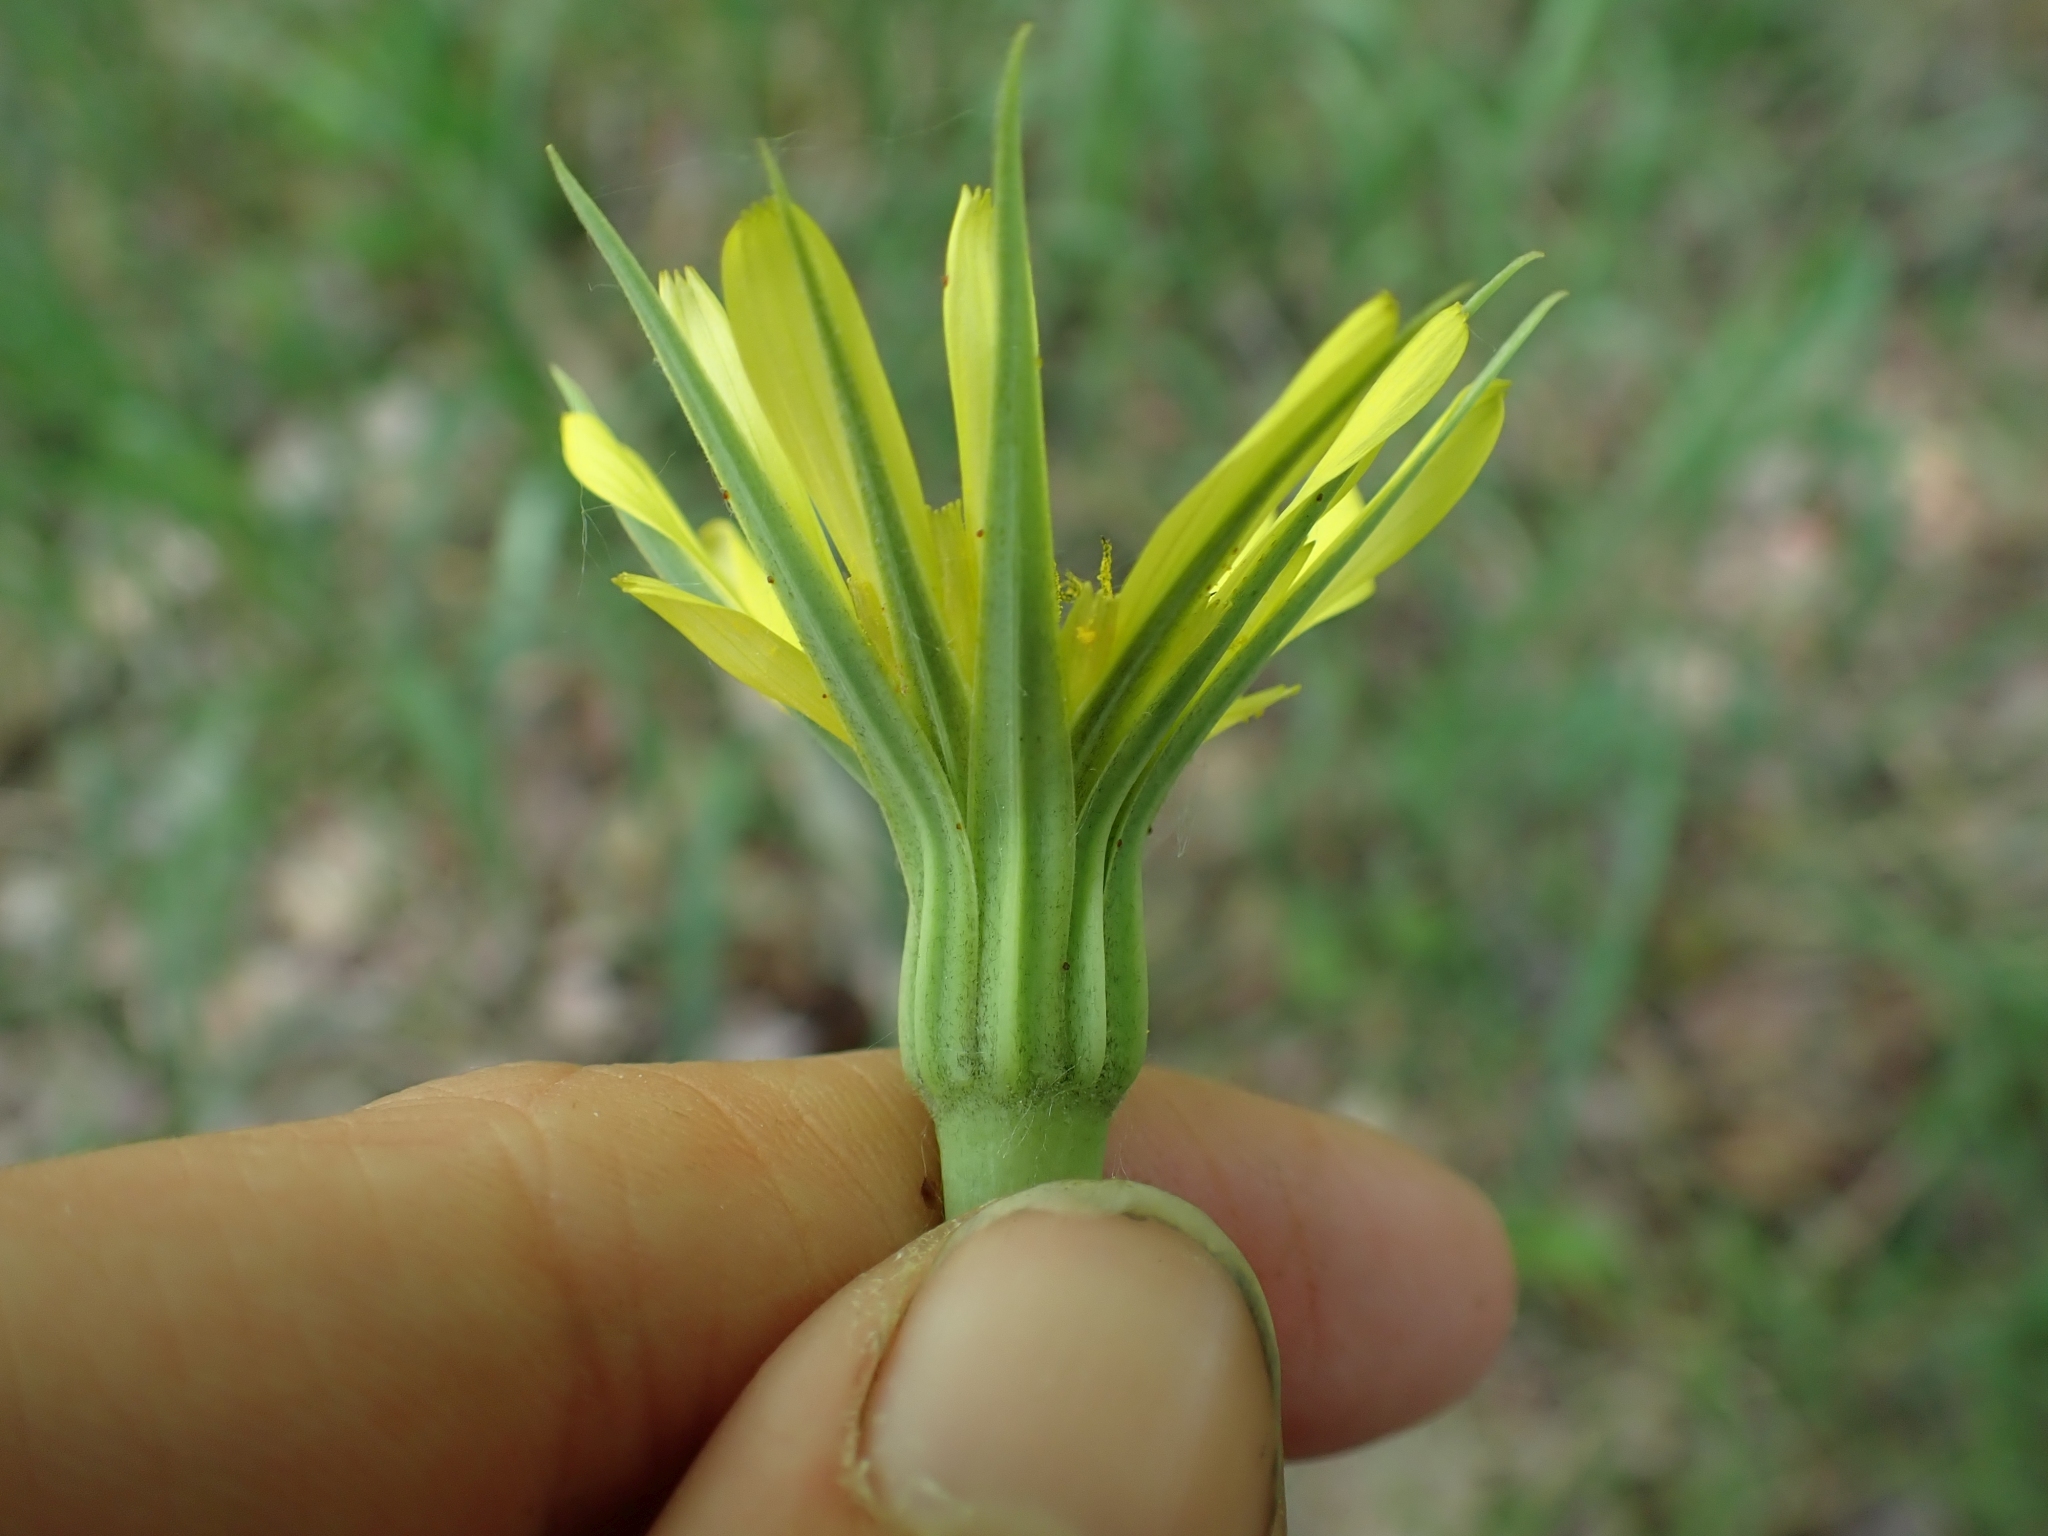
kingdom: Plantae
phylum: Tracheophyta
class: Magnoliopsida
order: Asterales
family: Asteraceae
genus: Tragopogon
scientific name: Tragopogon dubius
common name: Yellow salsify
